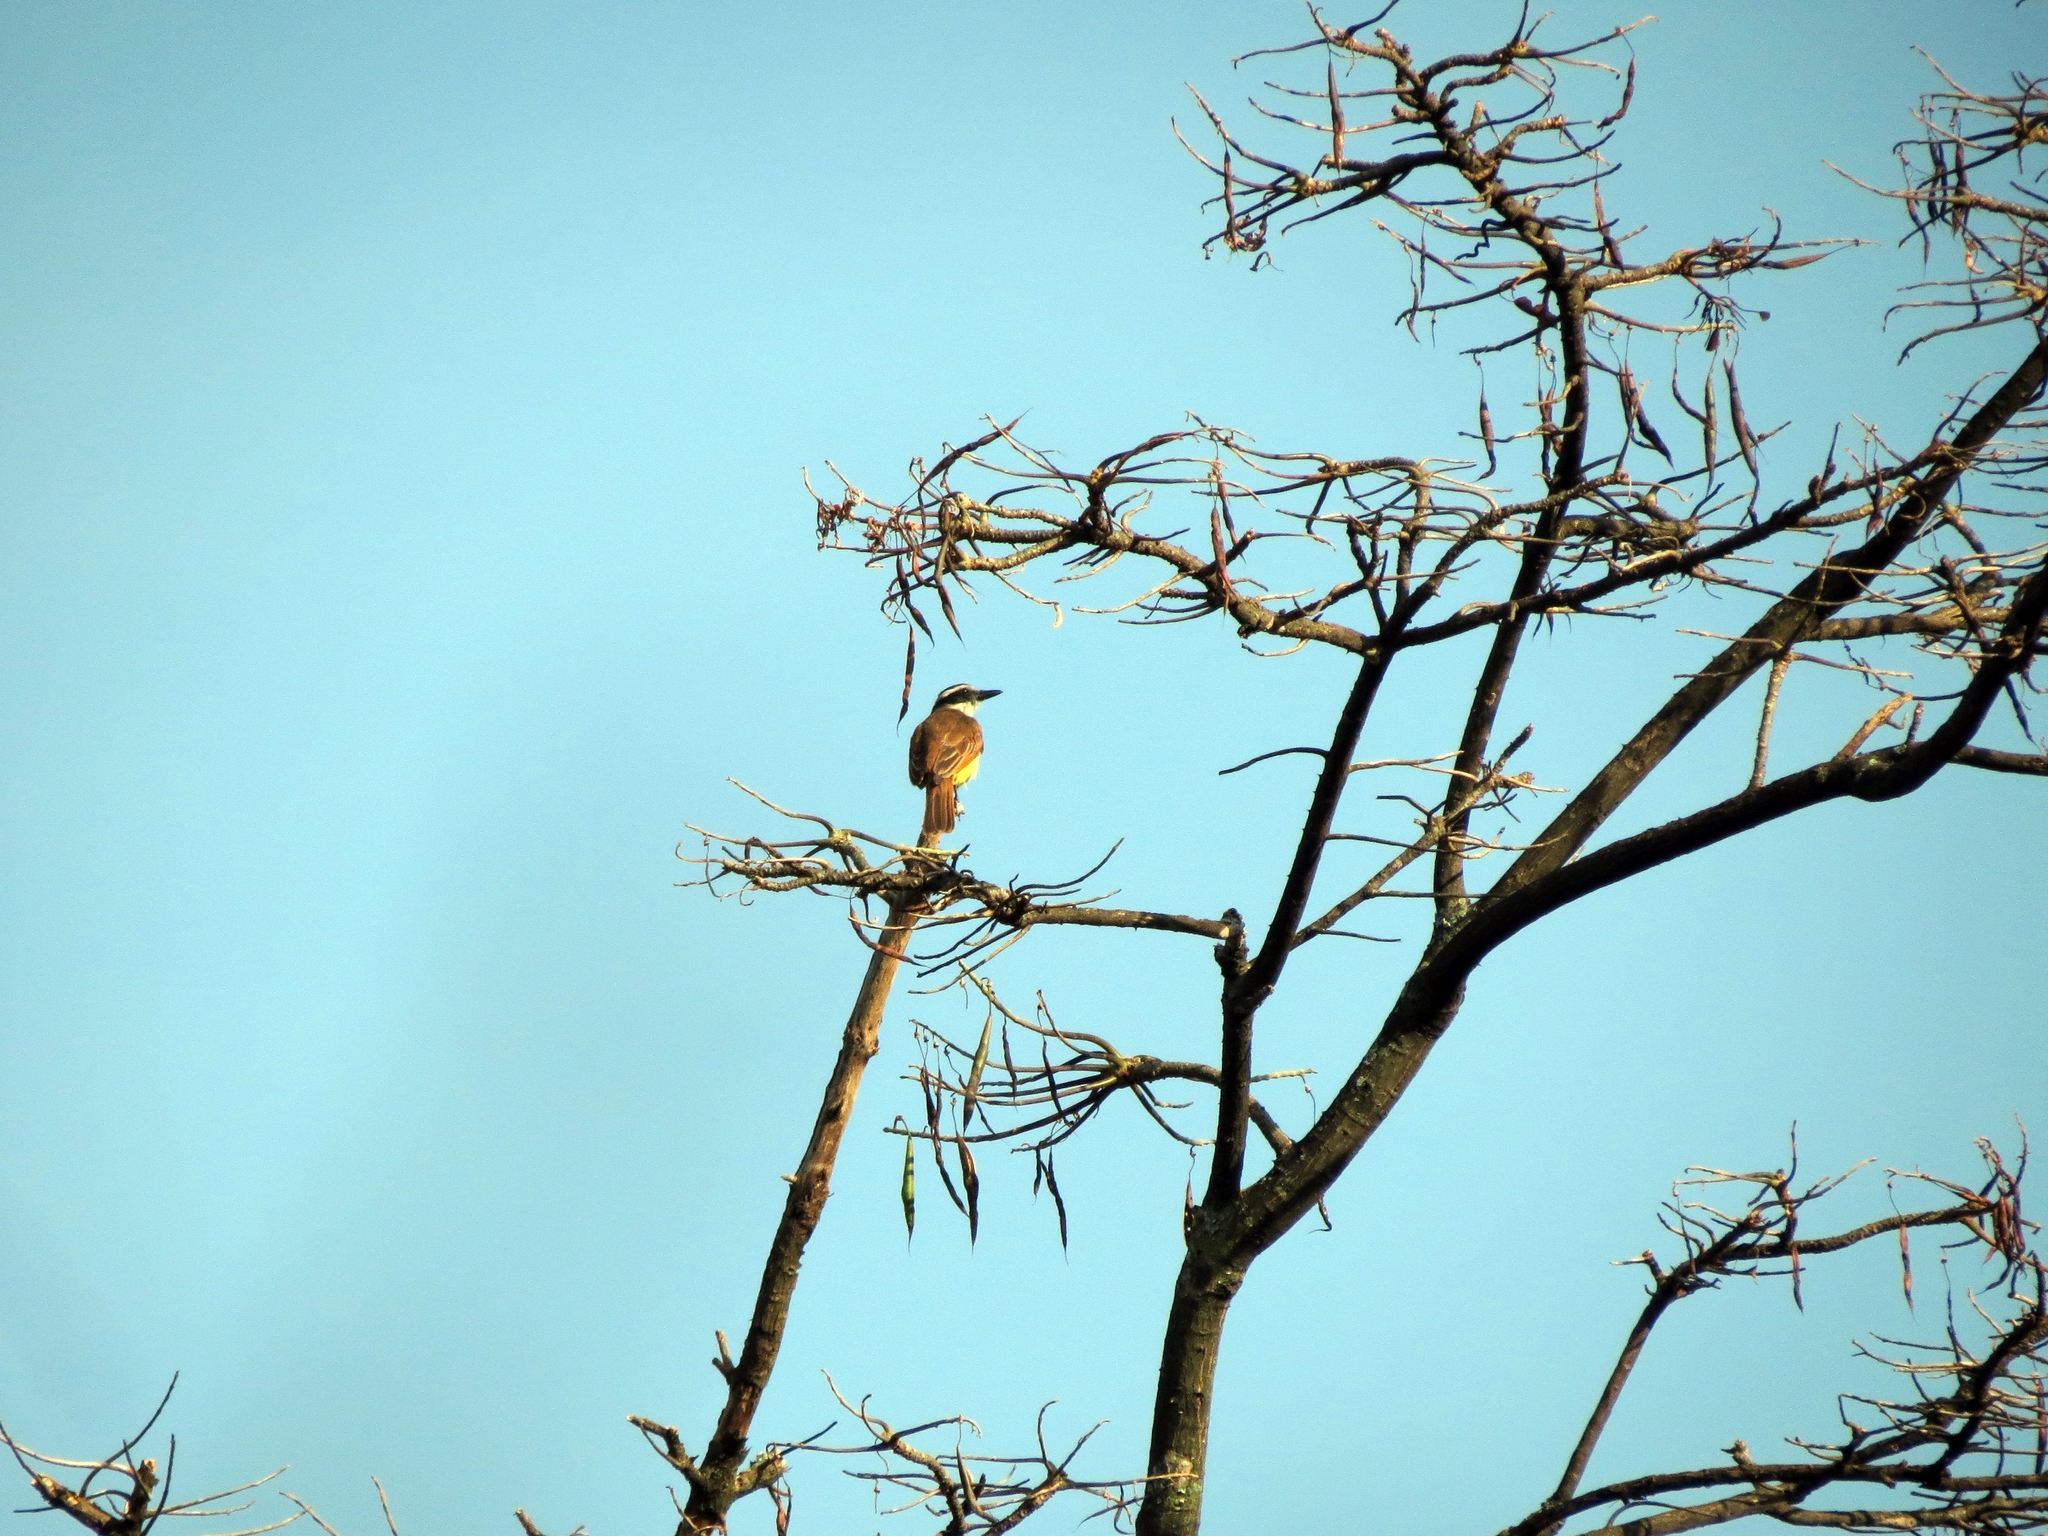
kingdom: Animalia
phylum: Chordata
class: Aves
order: Passeriformes
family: Tyrannidae
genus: Pitangus
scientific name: Pitangus sulphuratus
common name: Great kiskadee
